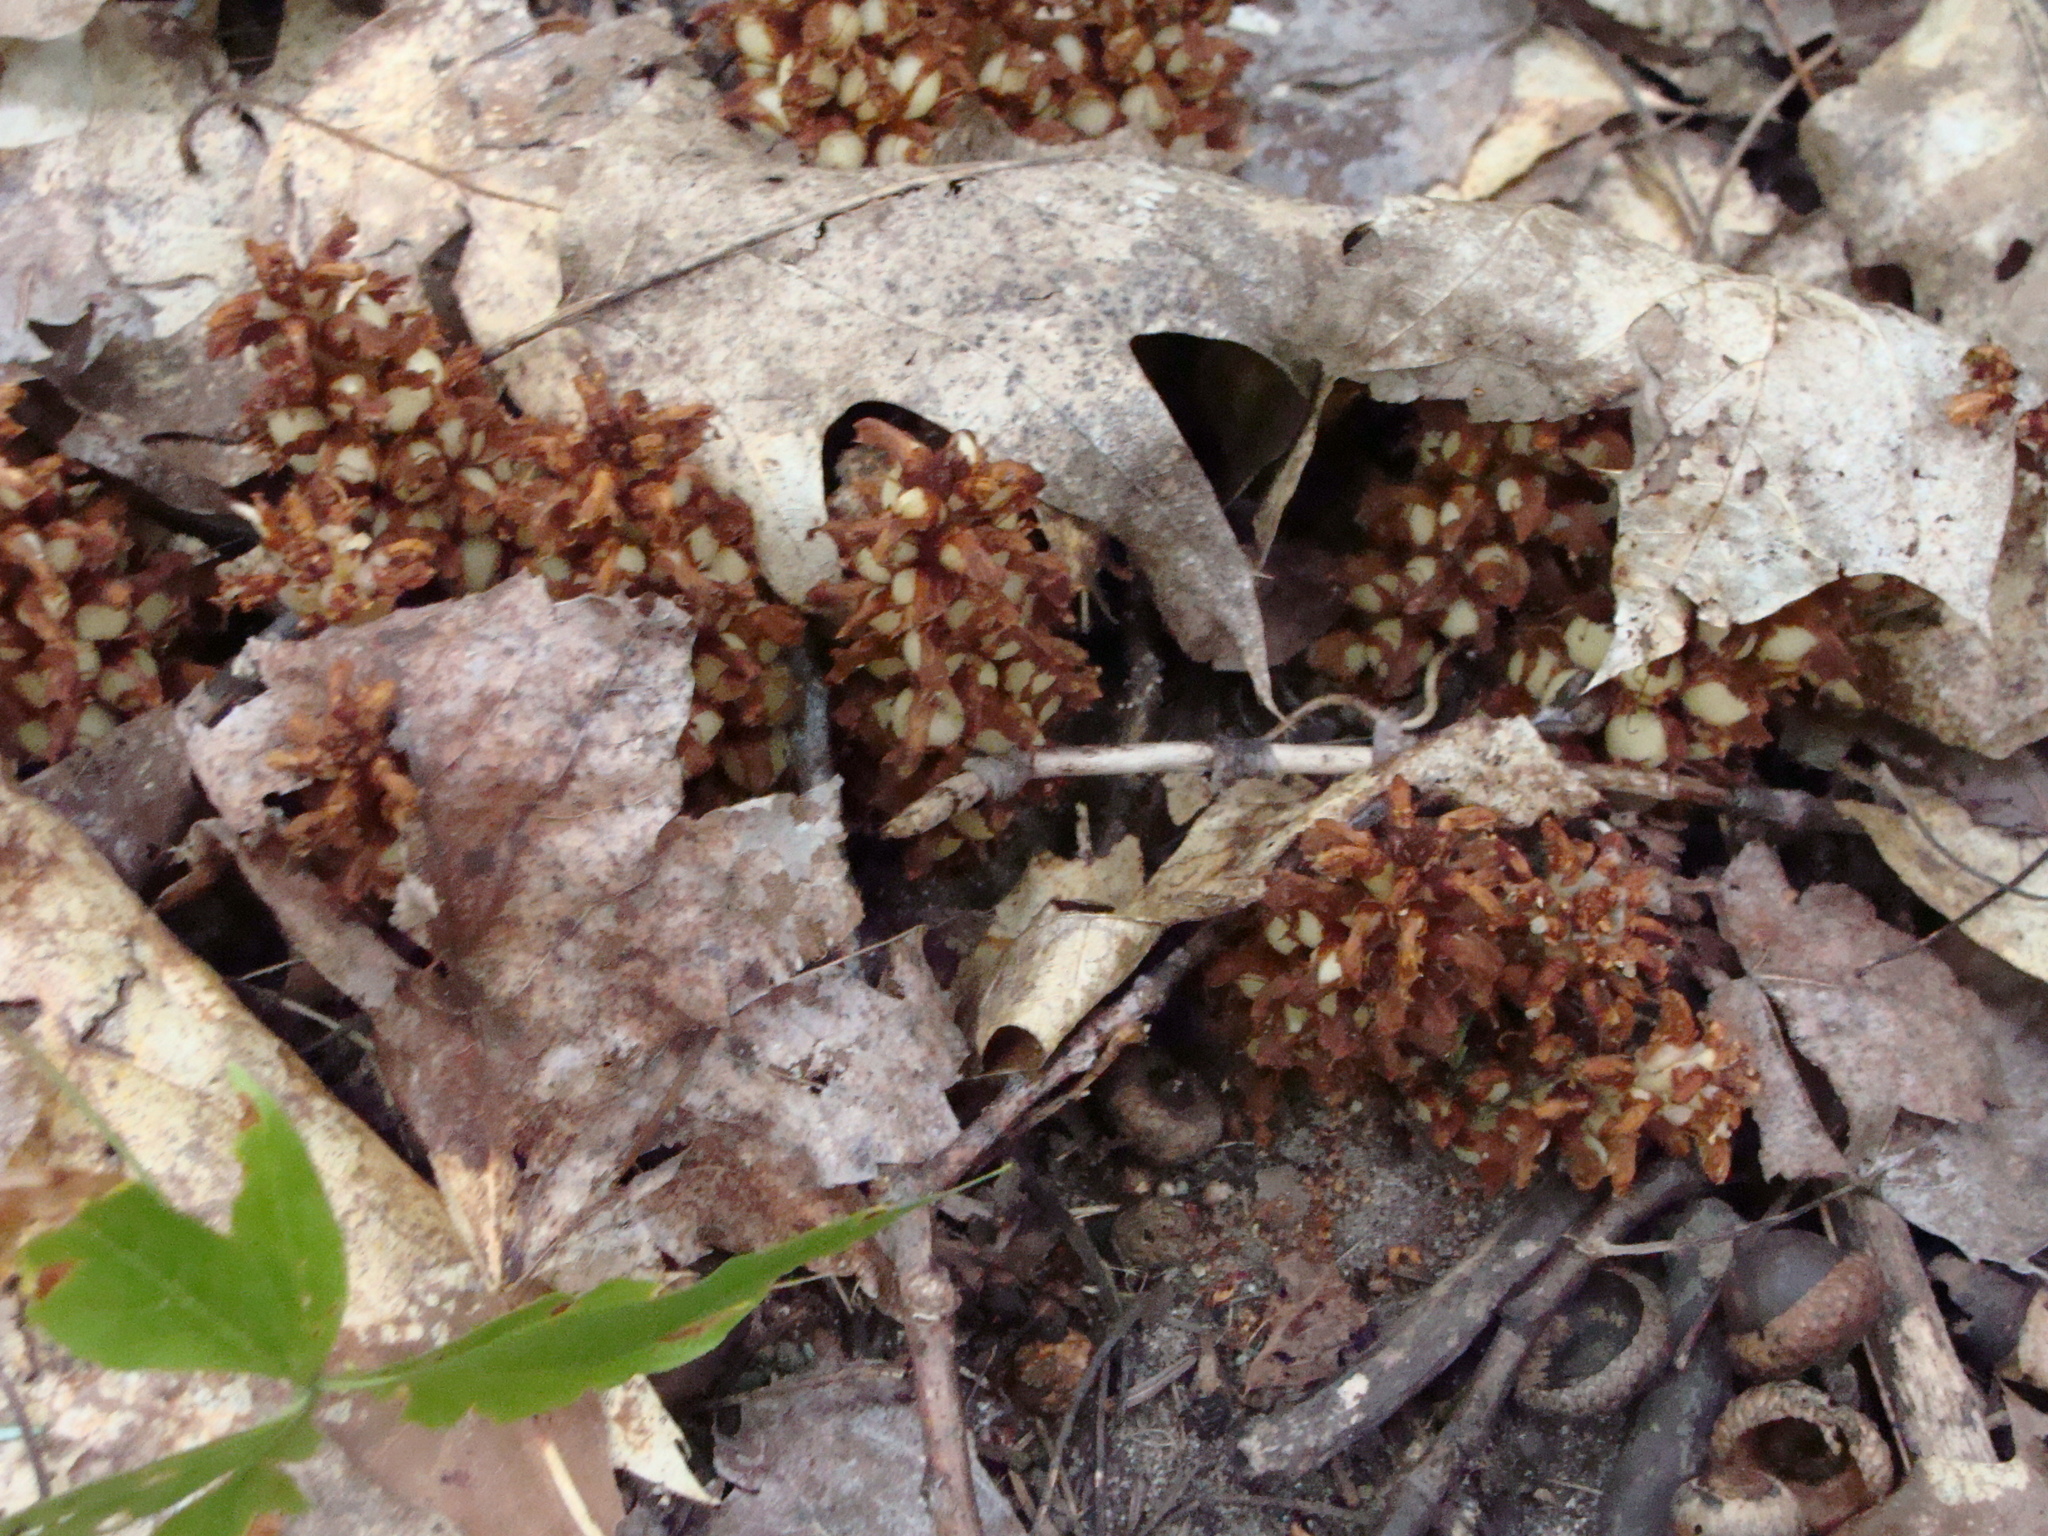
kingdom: Plantae
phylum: Tracheophyta
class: Magnoliopsida
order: Lamiales
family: Orobanchaceae
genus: Conopholis
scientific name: Conopholis americana
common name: American cancer-root
